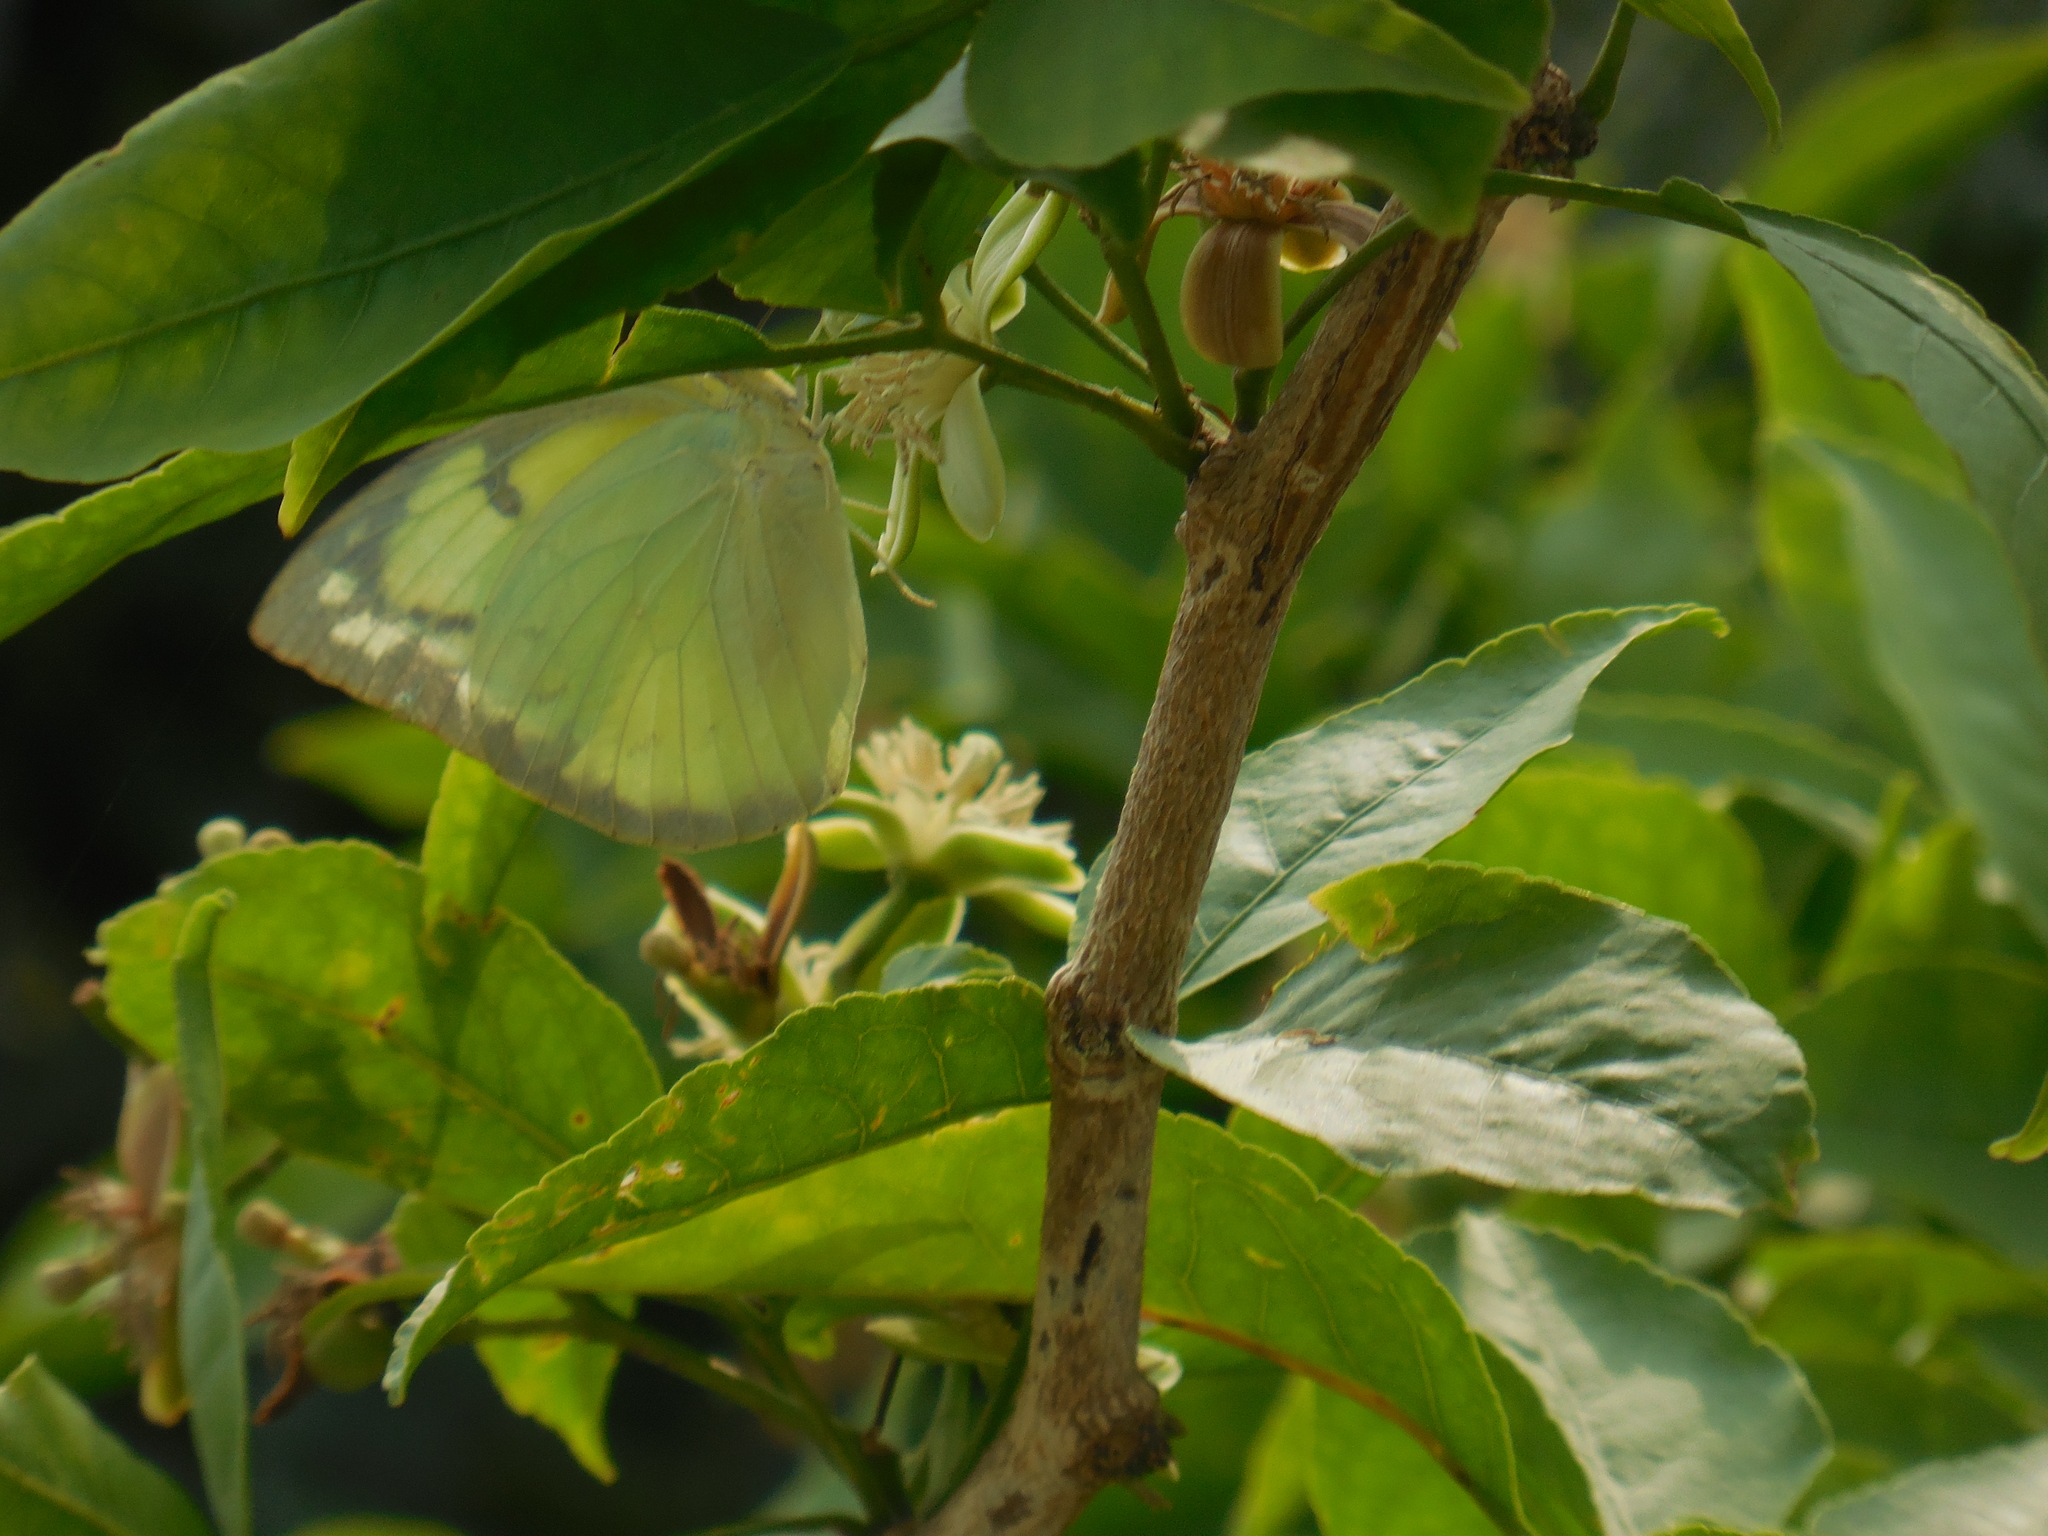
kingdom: Animalia
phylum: Arthropoda
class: Insecta
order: Lepidoptera
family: Pieridae
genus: Catopsilia
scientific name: Catopsilia pomona
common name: Common emigrant
